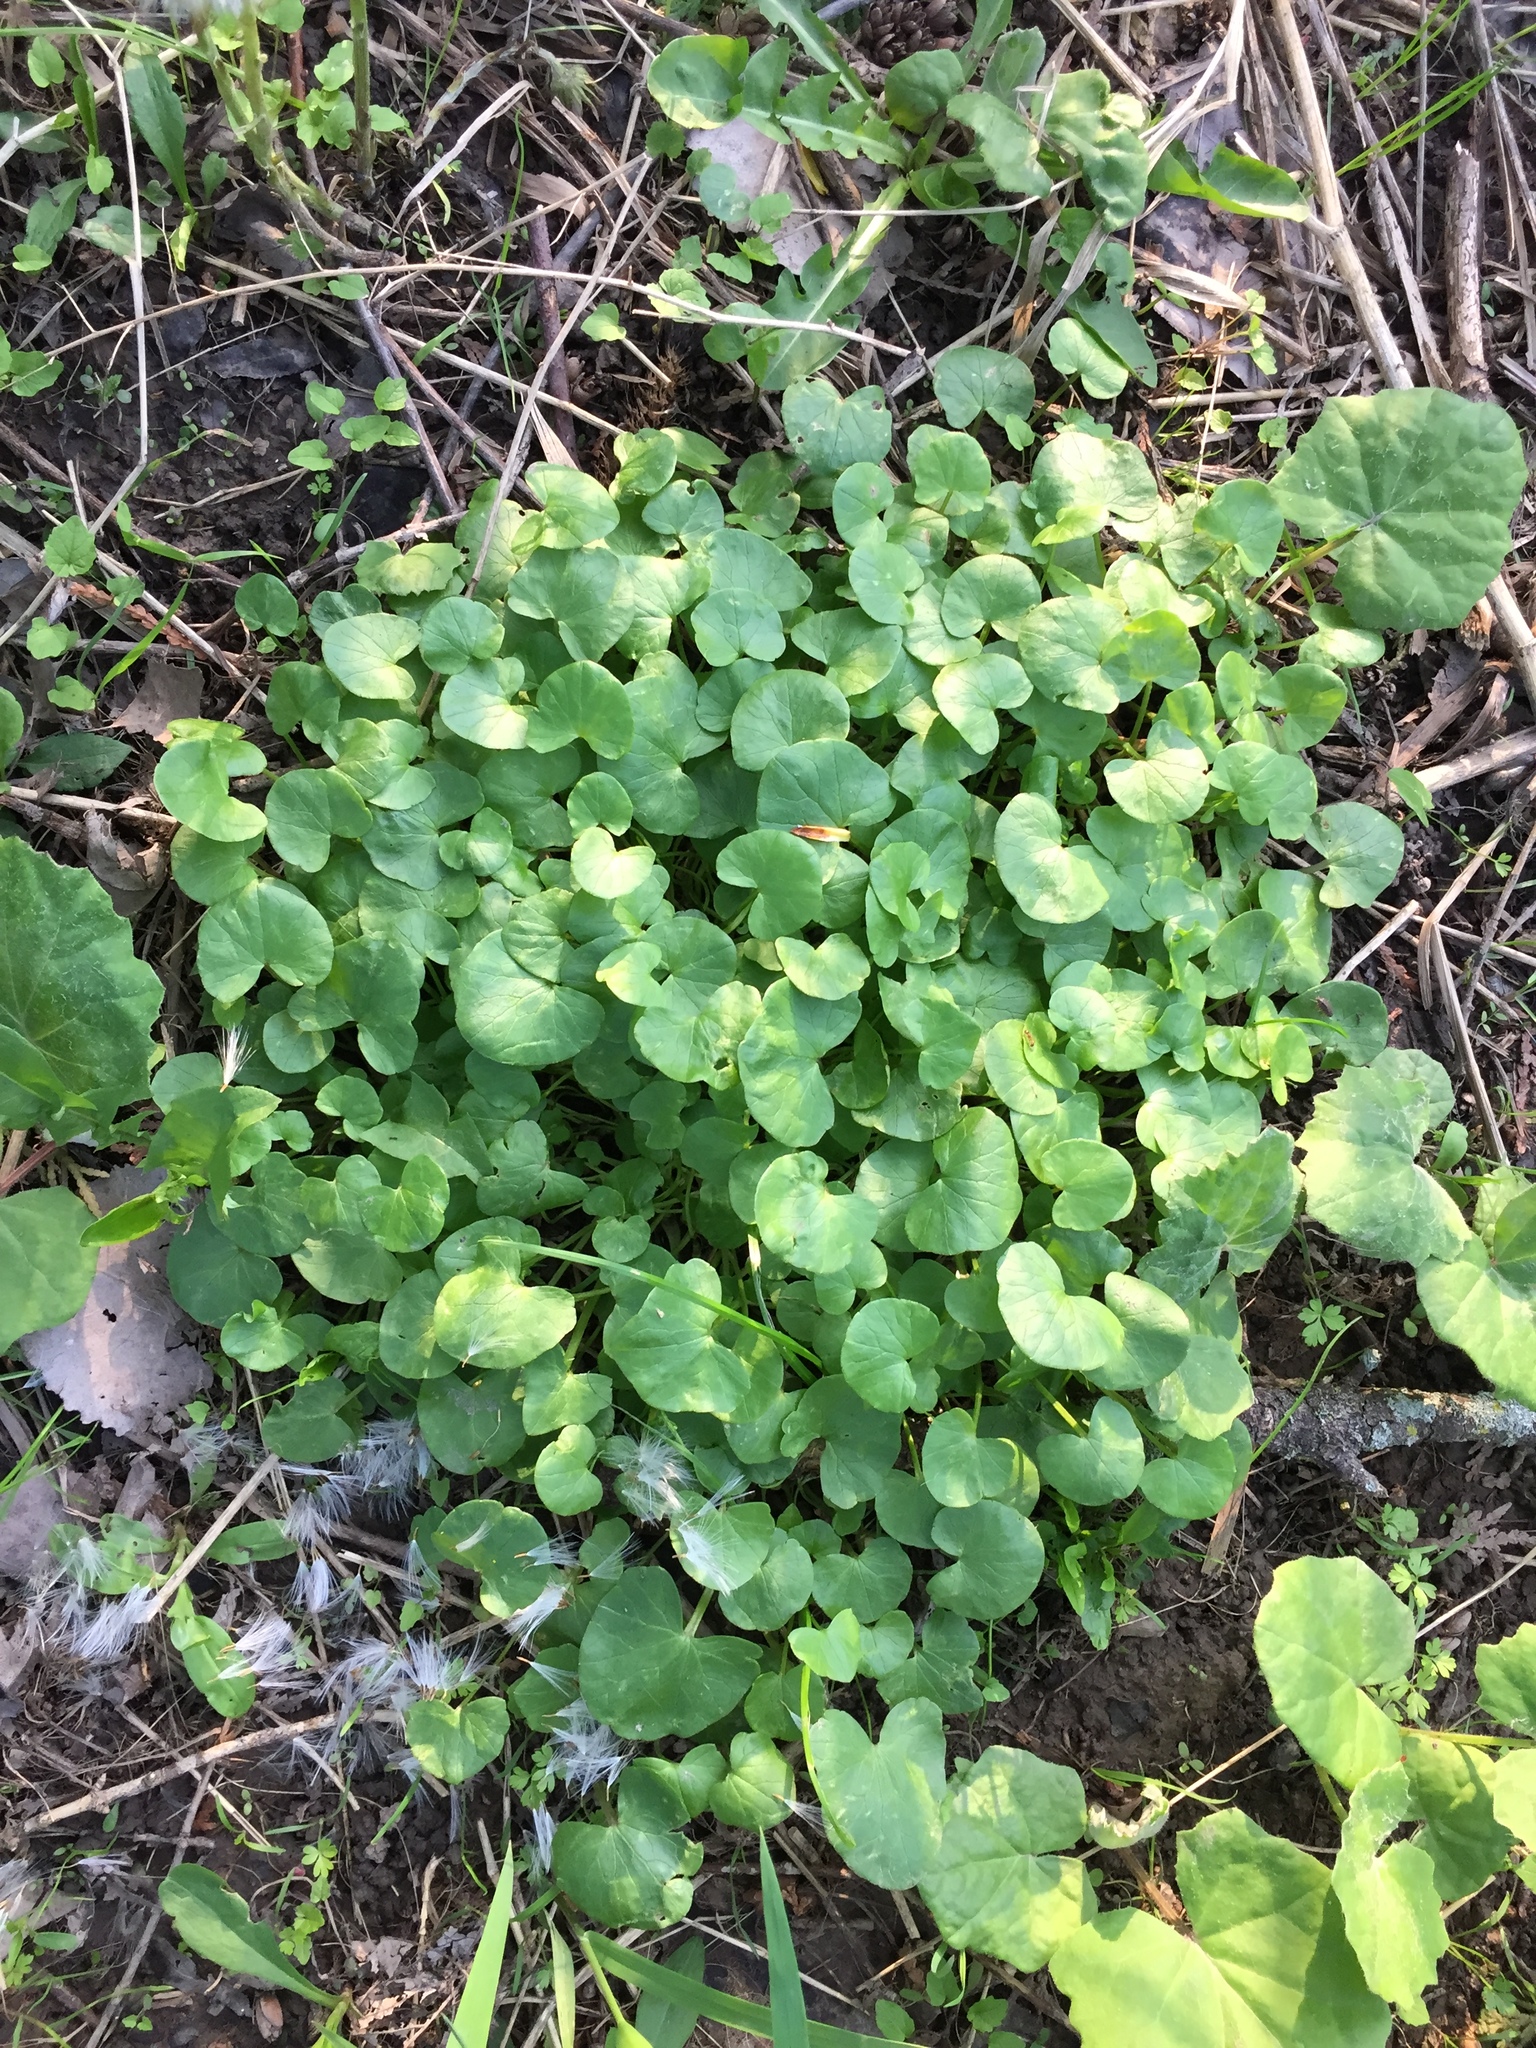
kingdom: Plantae
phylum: Tracheophyta
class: Magnoliopsida
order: Ranunculales
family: Ranunculaceae
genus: Ficaria
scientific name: Ficaria verna
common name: Lesser celandine
